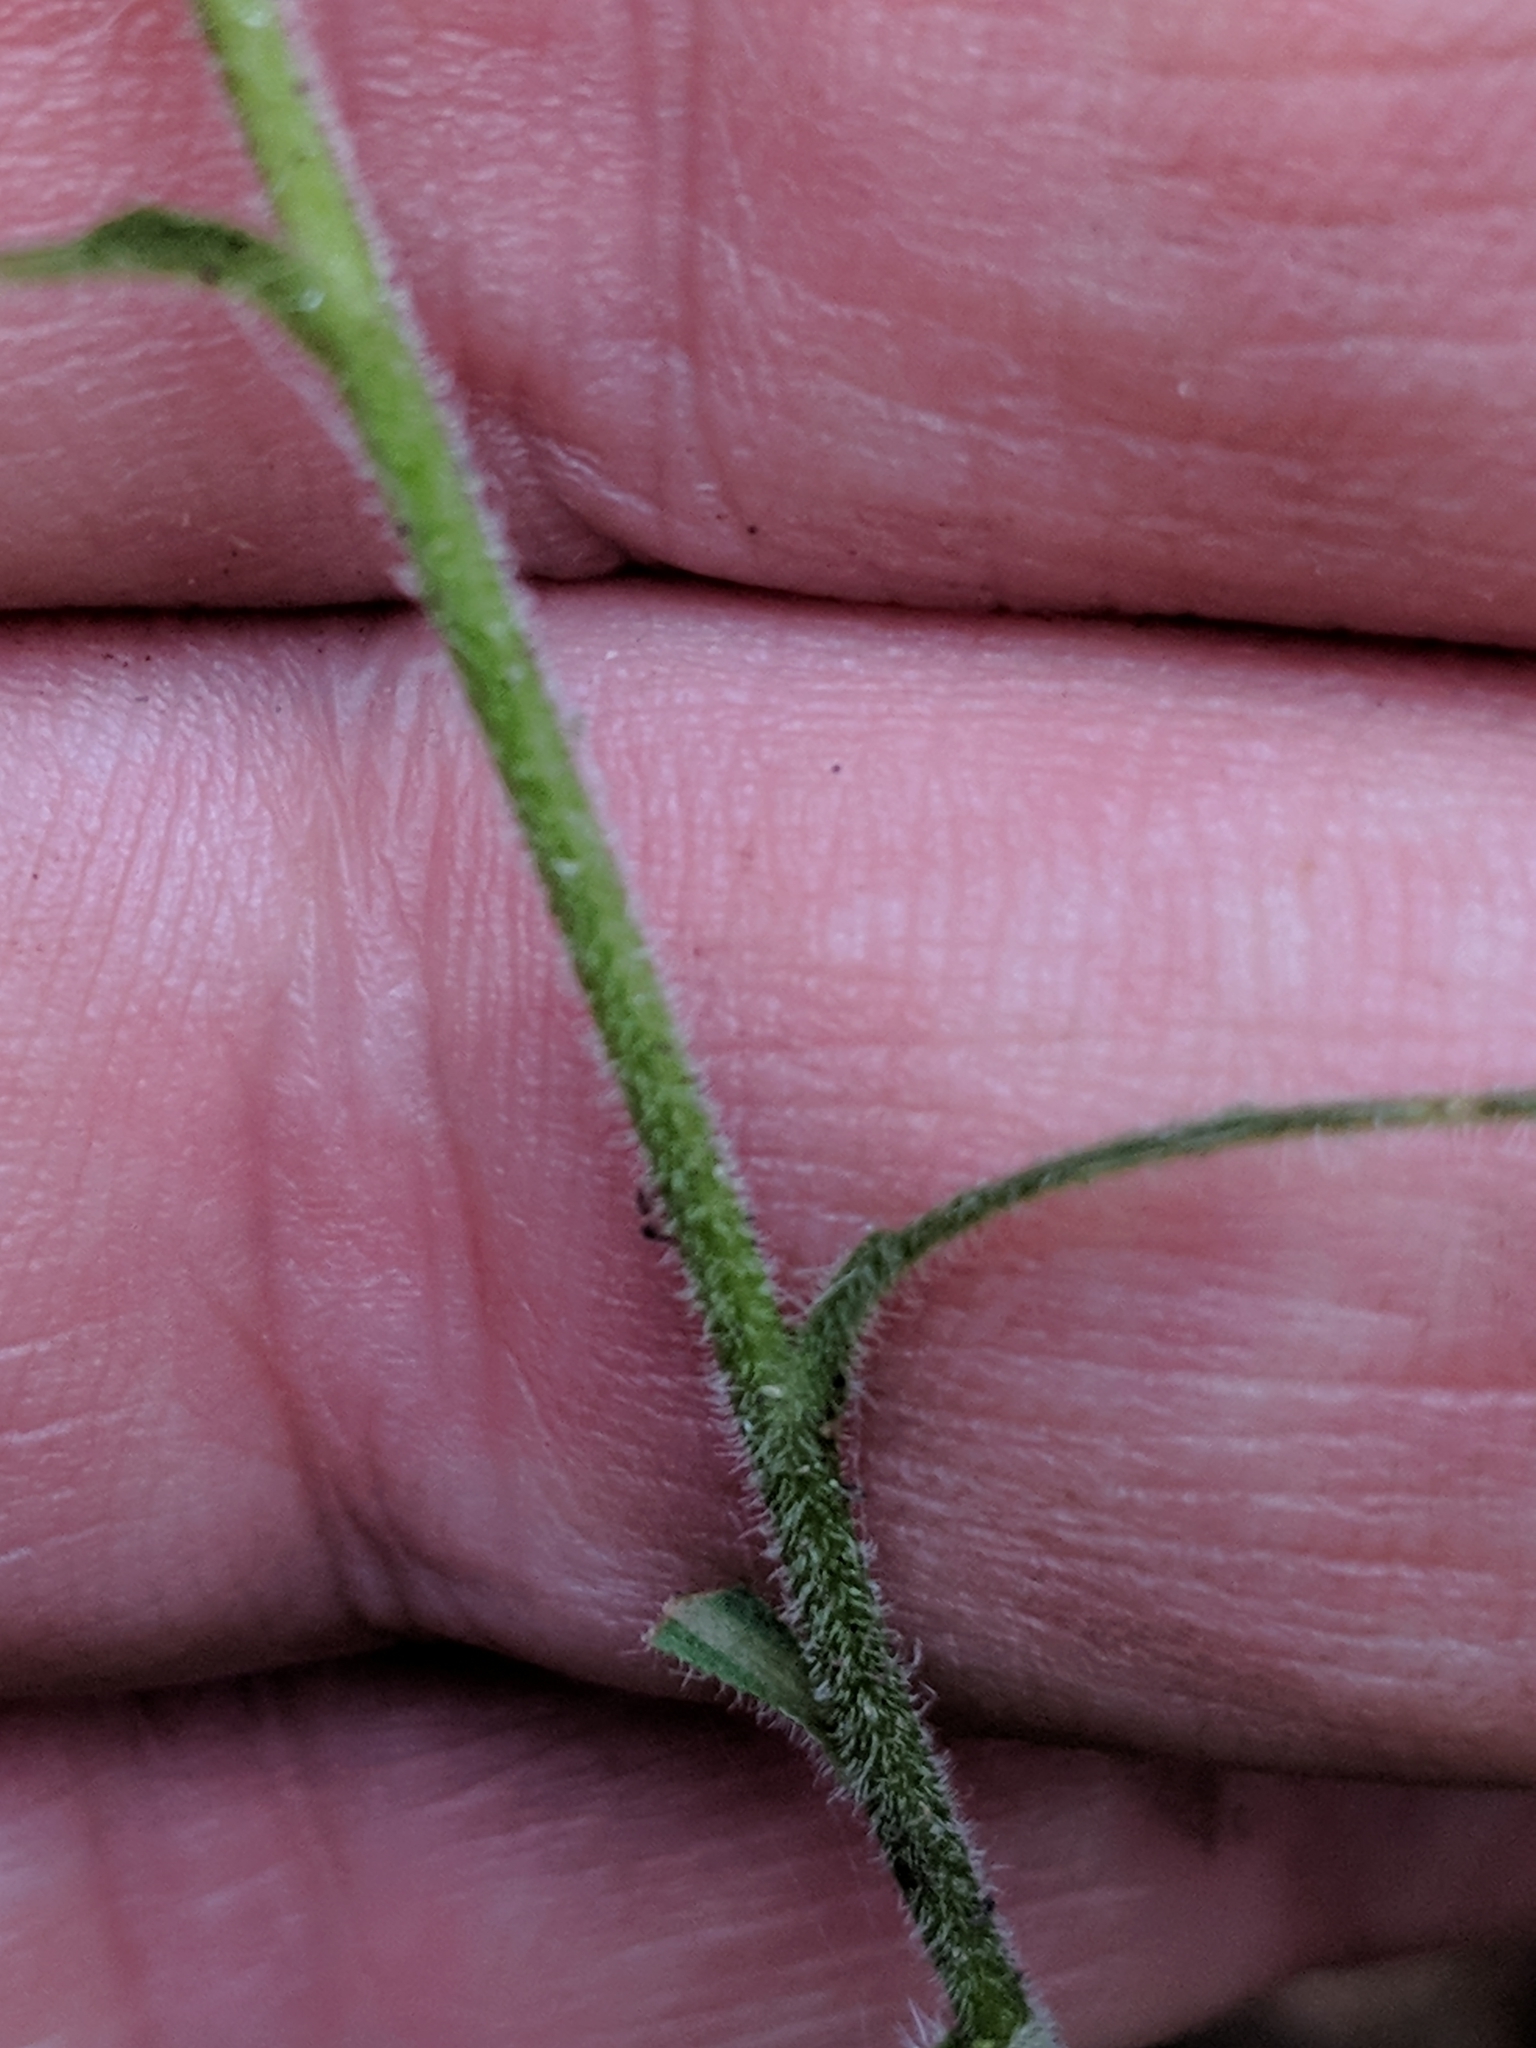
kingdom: Plantae
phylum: Tracheophyta
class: Magnoliopsida
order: Asterales
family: Asteraceae
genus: Solidago
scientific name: Solidago bicolor
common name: Silverrod
